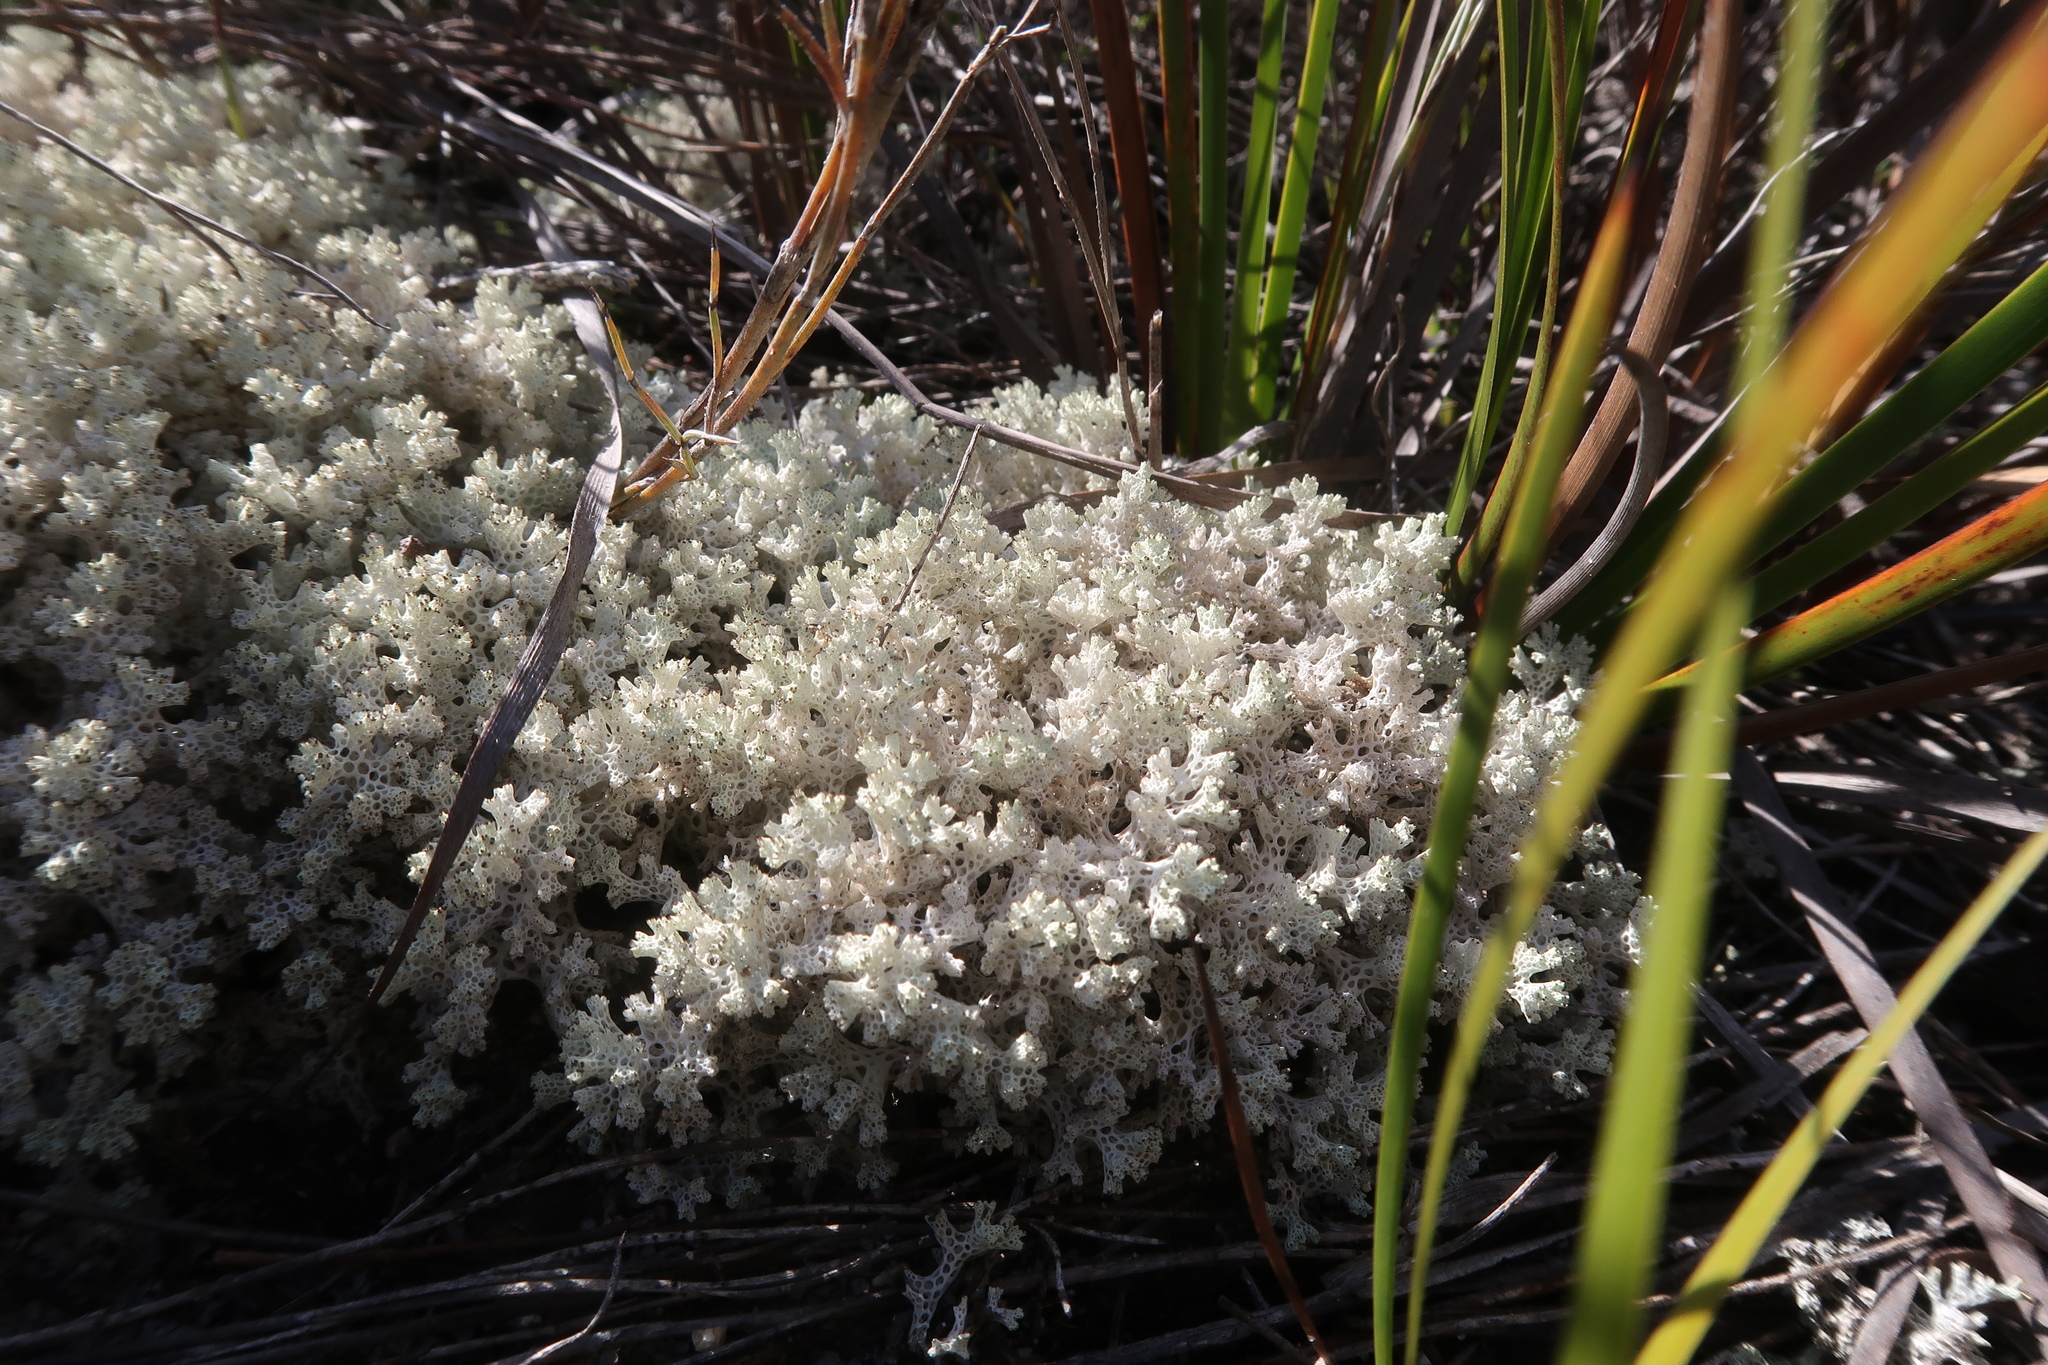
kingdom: Fungi
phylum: Ascomycota
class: Lecanoromycetes
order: Lecanorales
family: Cladoniaceae
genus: Pulchrocladia
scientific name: Pulchrocladia retipora
